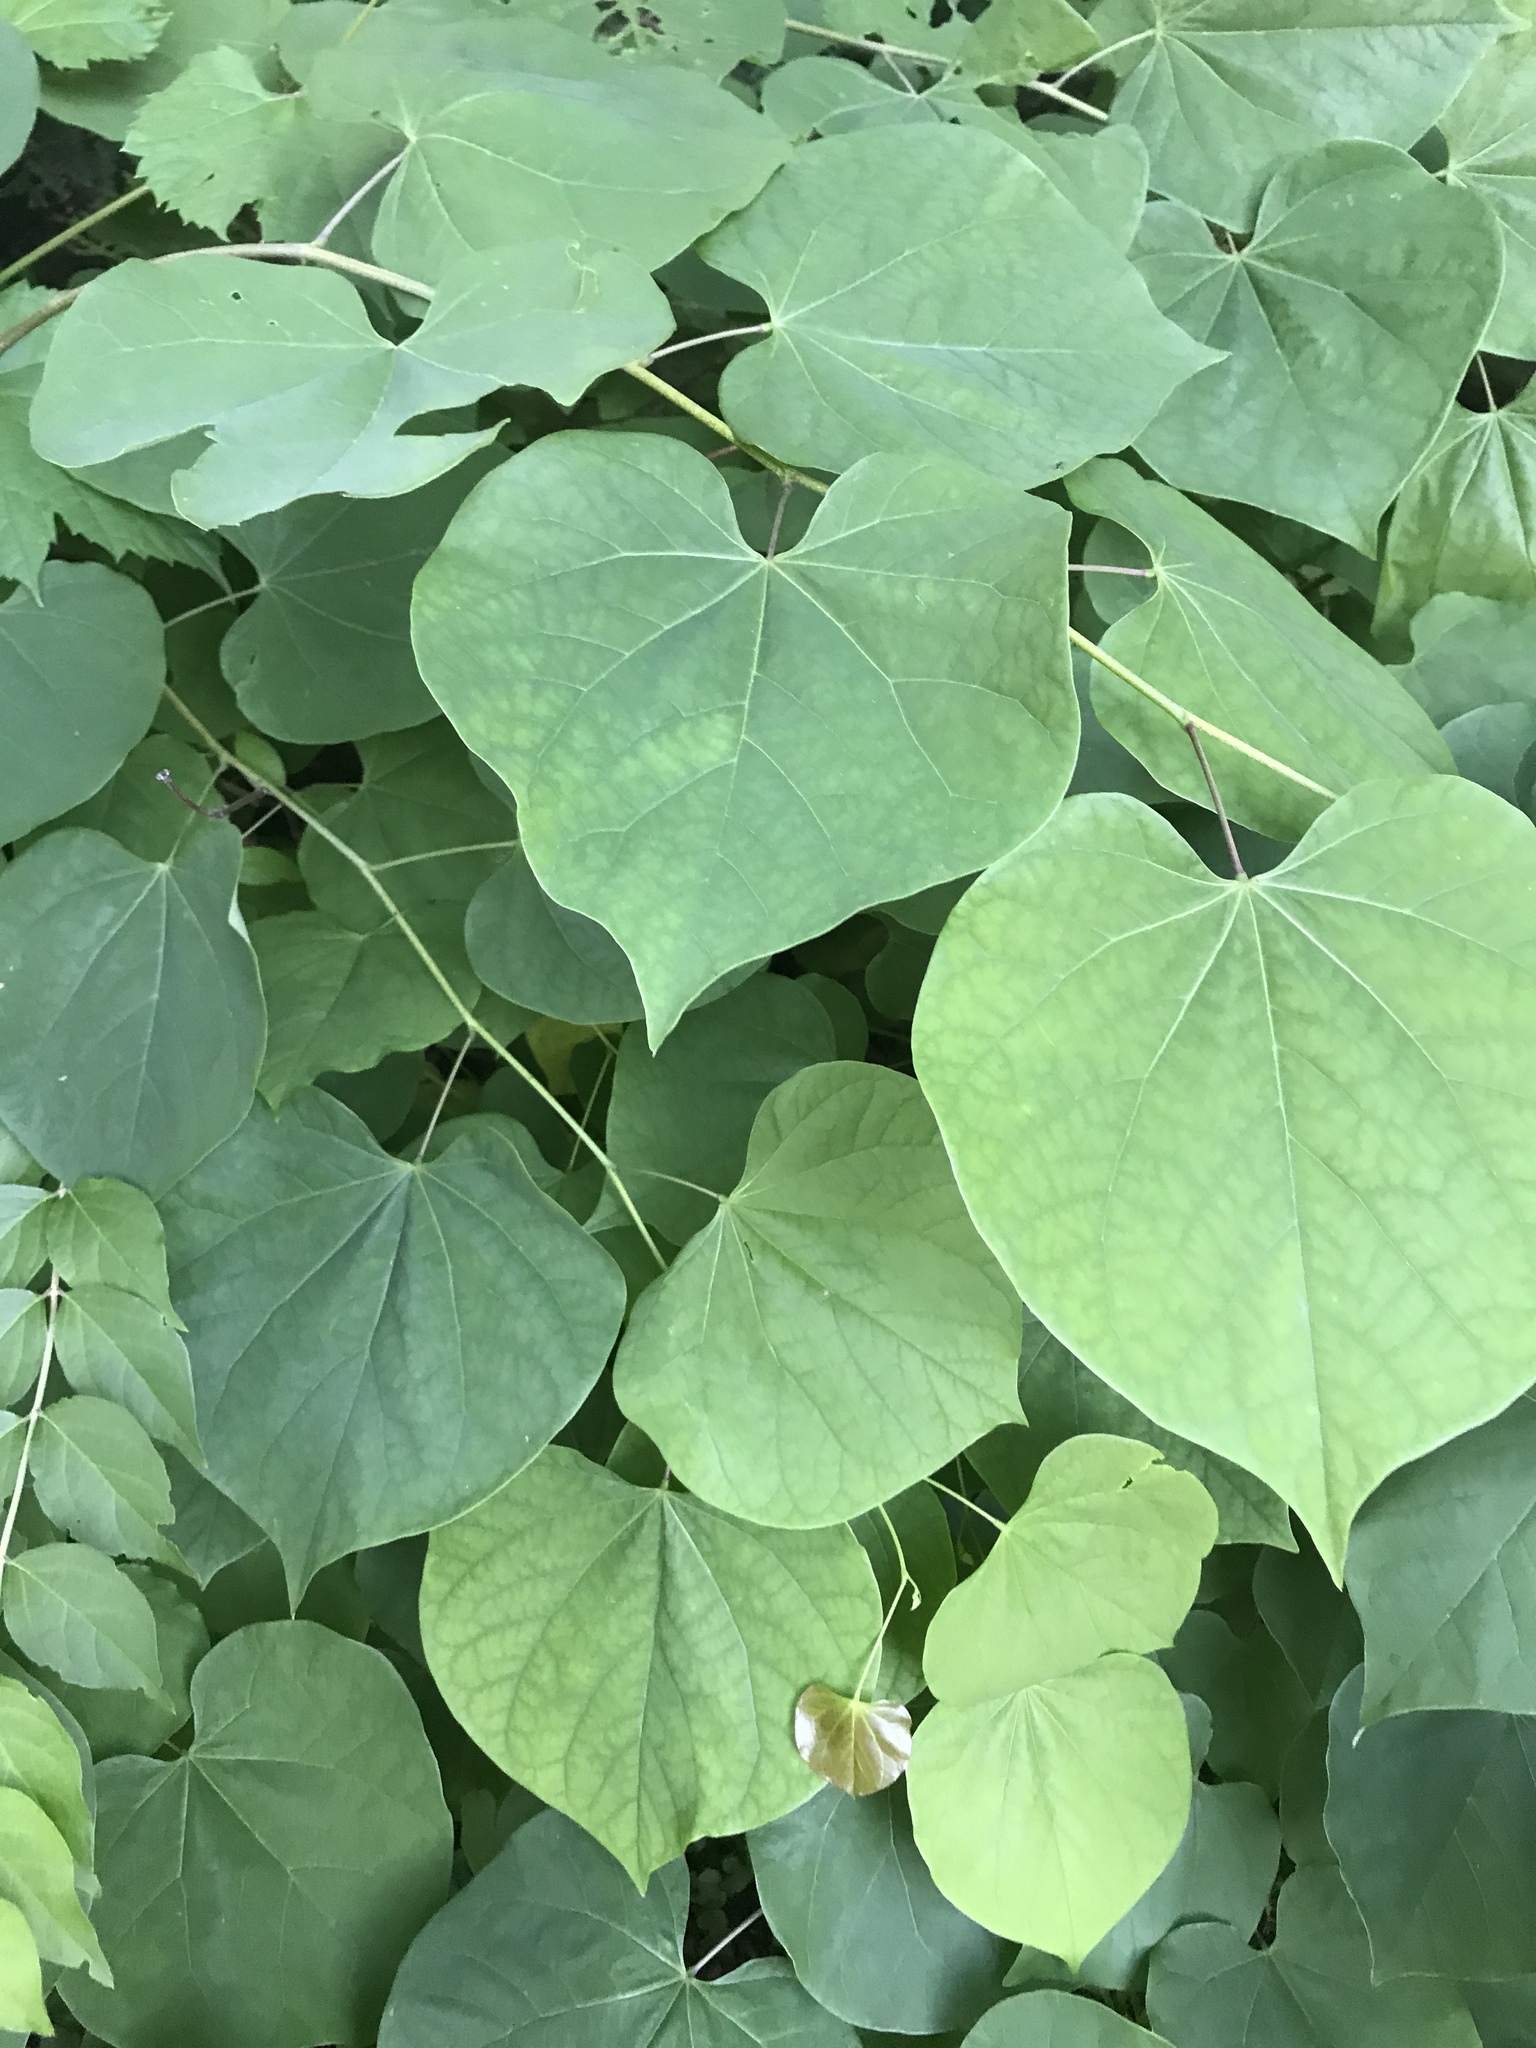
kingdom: Plantae
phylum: Tracheophyta
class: Magnoliopsida
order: Fabales
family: Fabaceae
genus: Cercis
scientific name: Cercis canadensis
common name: Eastern redbud
